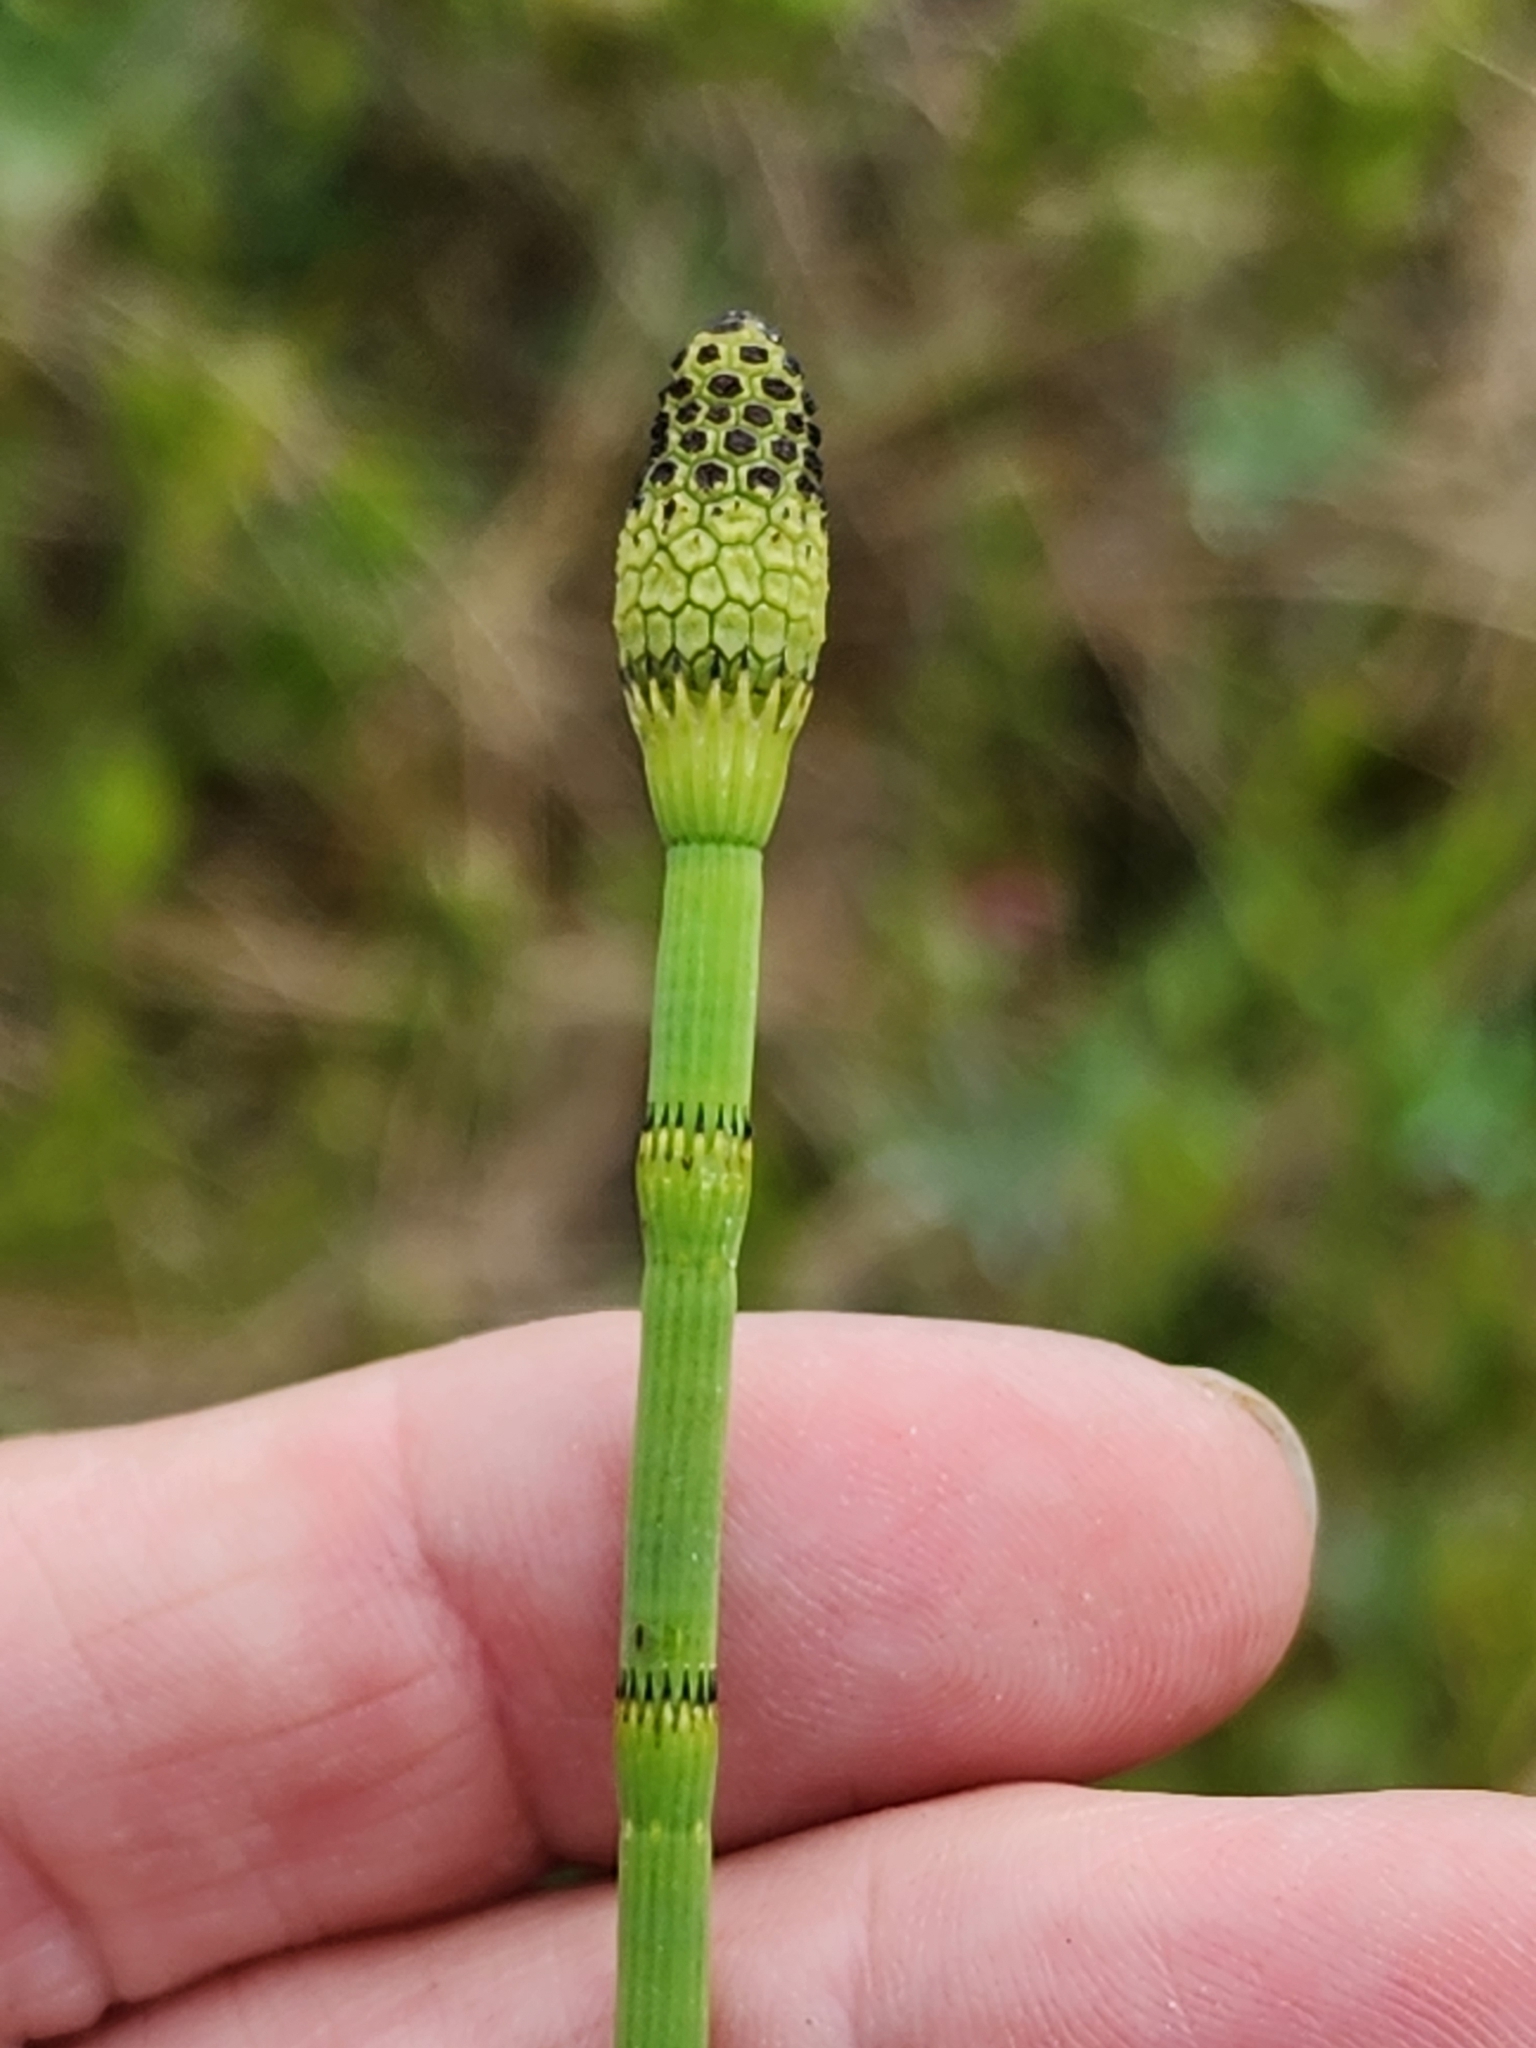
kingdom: Plantae
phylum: Tracheophyta
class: Polypodiopsida
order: Equisetales
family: Equisetaceae
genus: Equisetum
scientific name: Equisetum fluviatile
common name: Water horsetail
